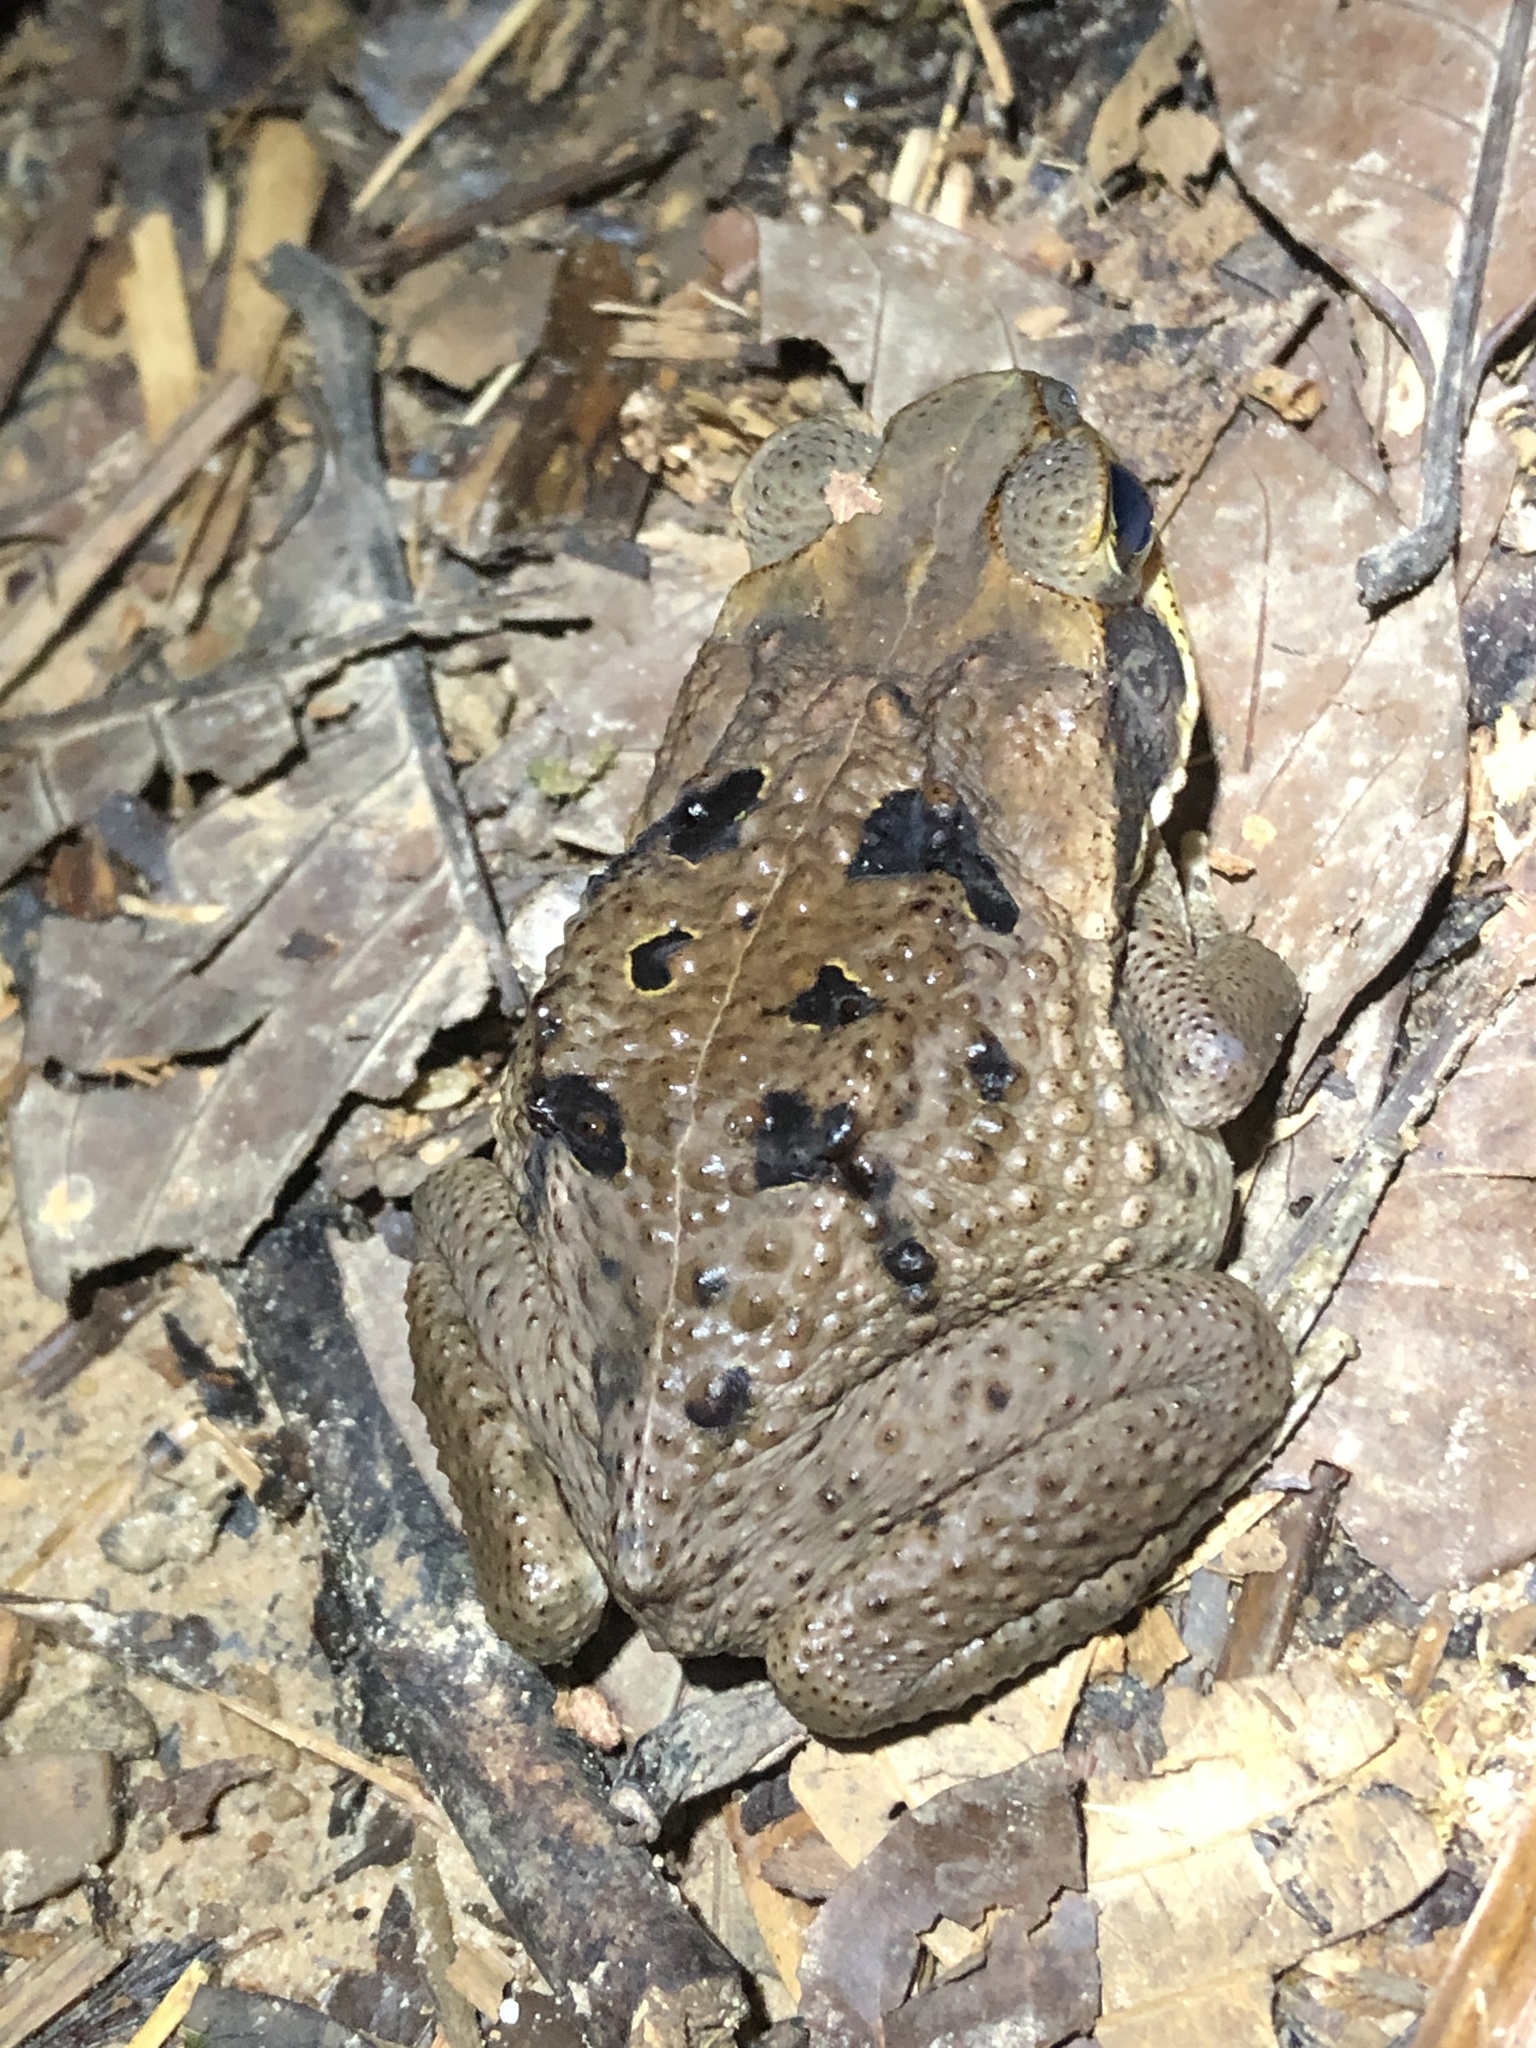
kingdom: Animalia
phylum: Chordata
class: Amphibia
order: Anura
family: Bufonidae
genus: Rhinella
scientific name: Rhinella marina
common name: Cane toad
